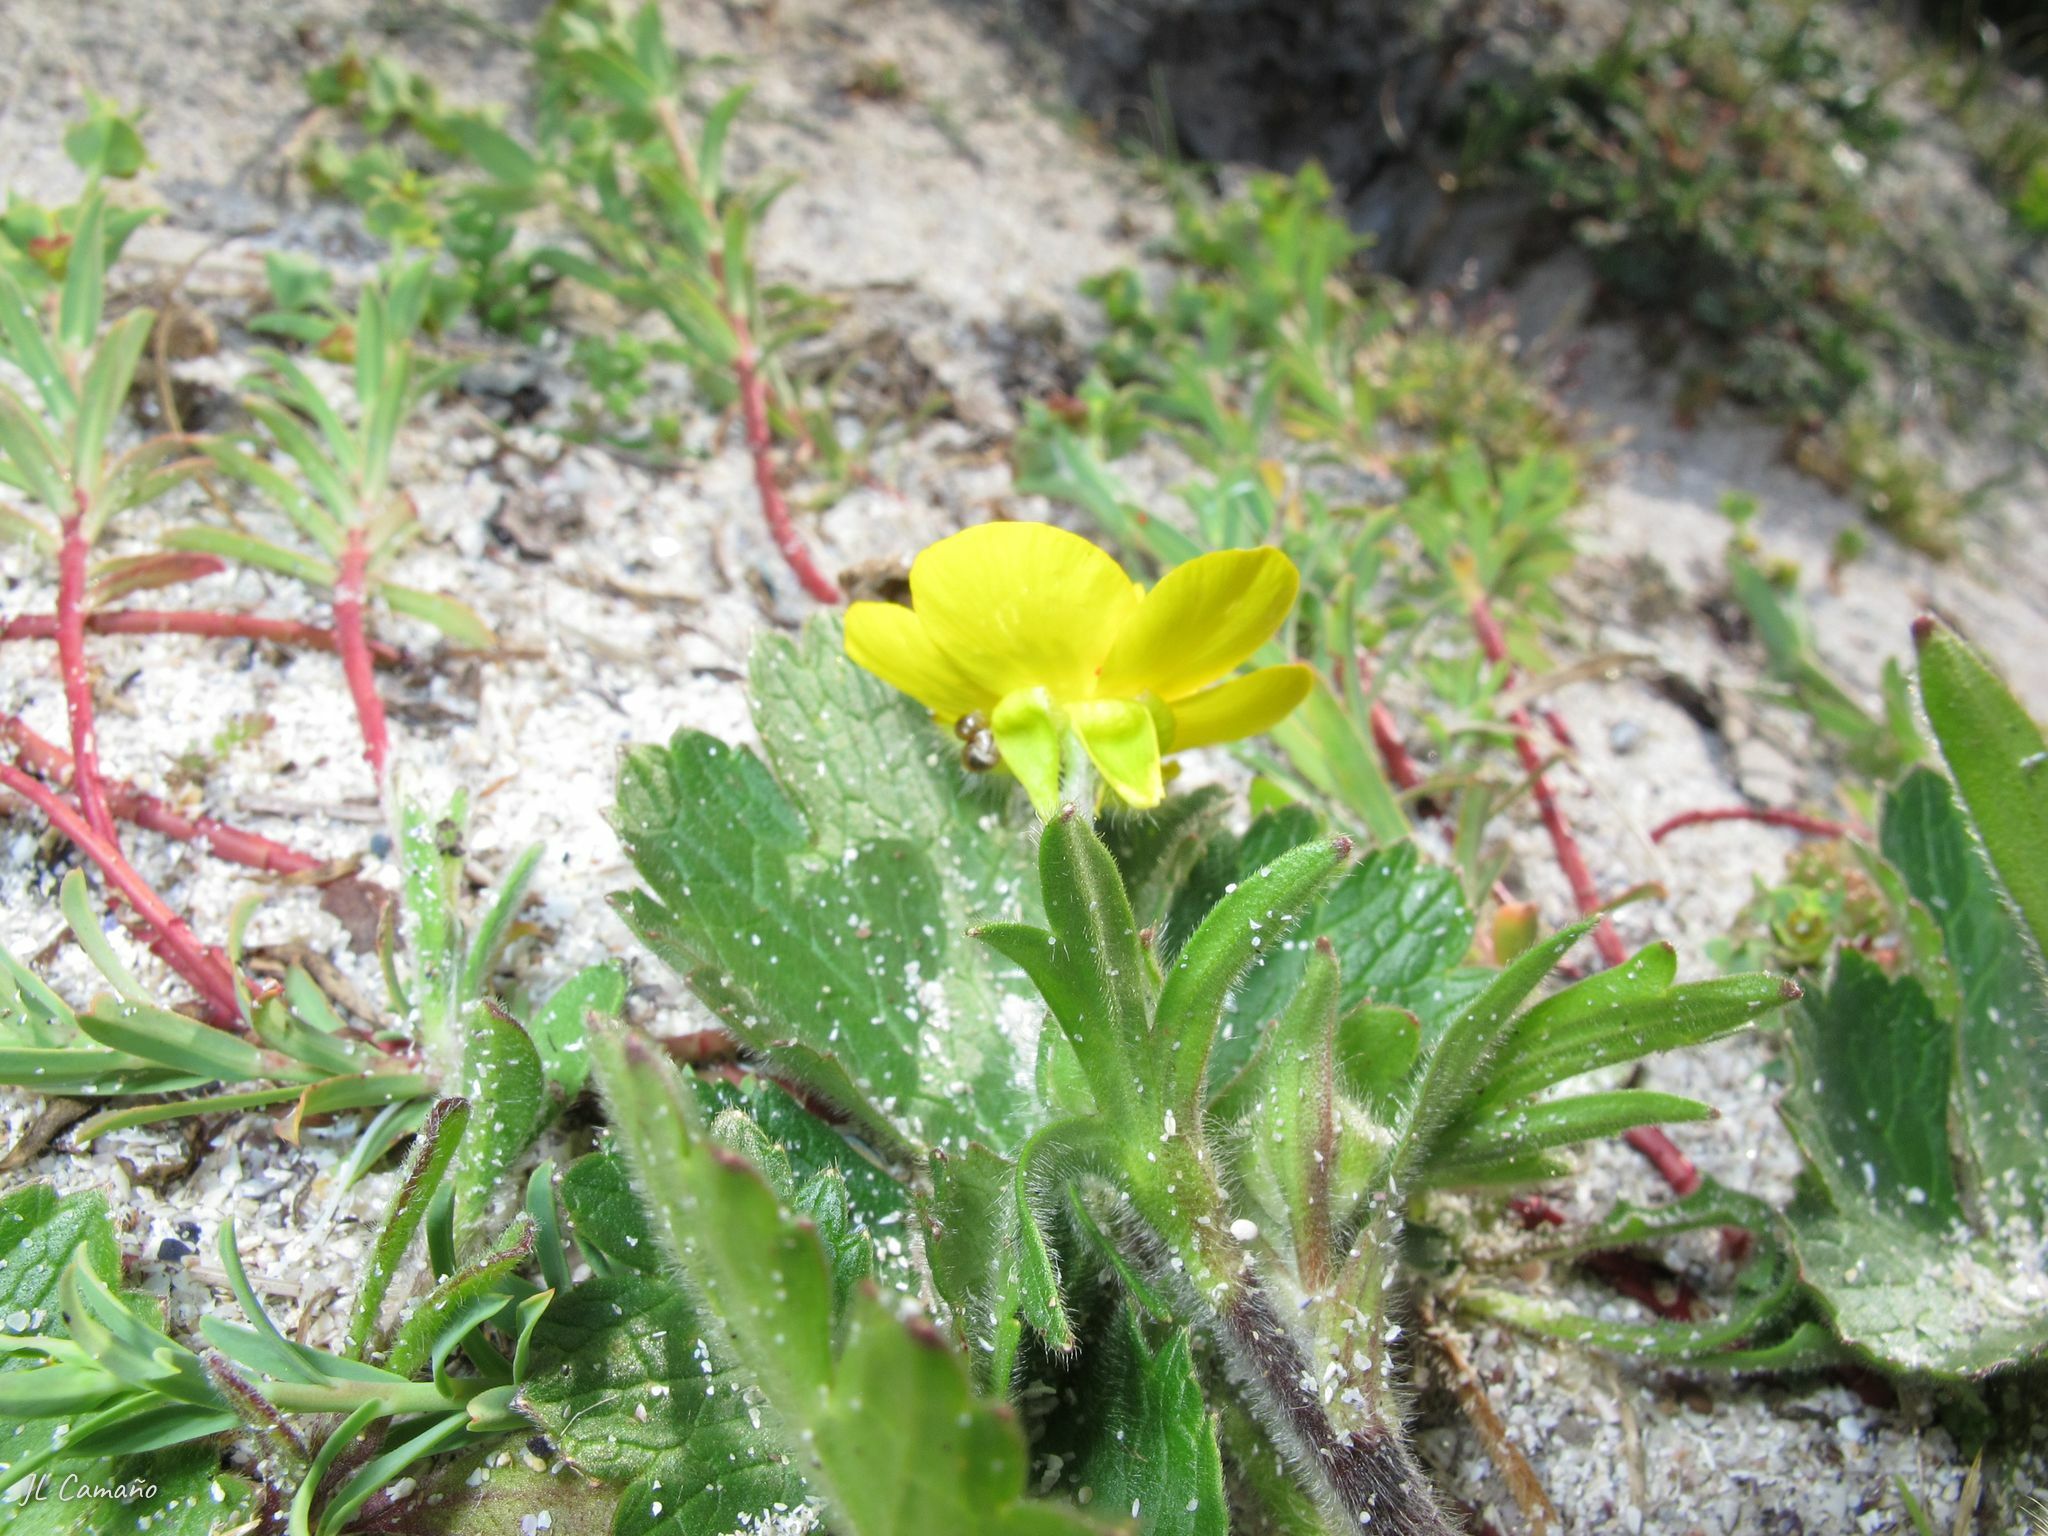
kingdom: Plantae
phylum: Tracheophyta
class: Magnoliopsida
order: Ranunculales
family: Ranunculaceae
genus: Ranunculus
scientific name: Ranunculus bulbosus
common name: Bulbous buttercup
